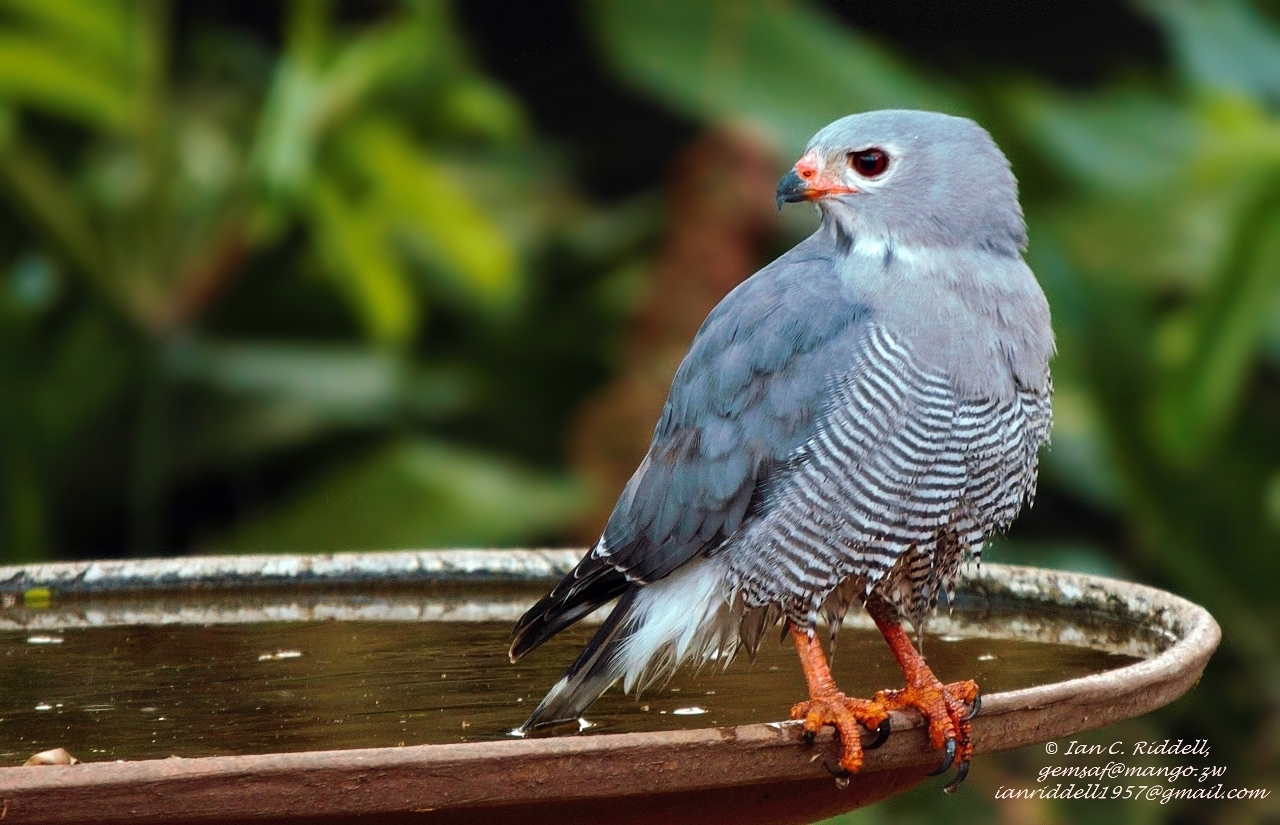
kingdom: Animalia
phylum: Chordata
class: Aves
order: Accipitriformes
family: Accipitridae
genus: Kaupifalco
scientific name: Kaupifalco monogrammicus
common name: Lizard buzzard
